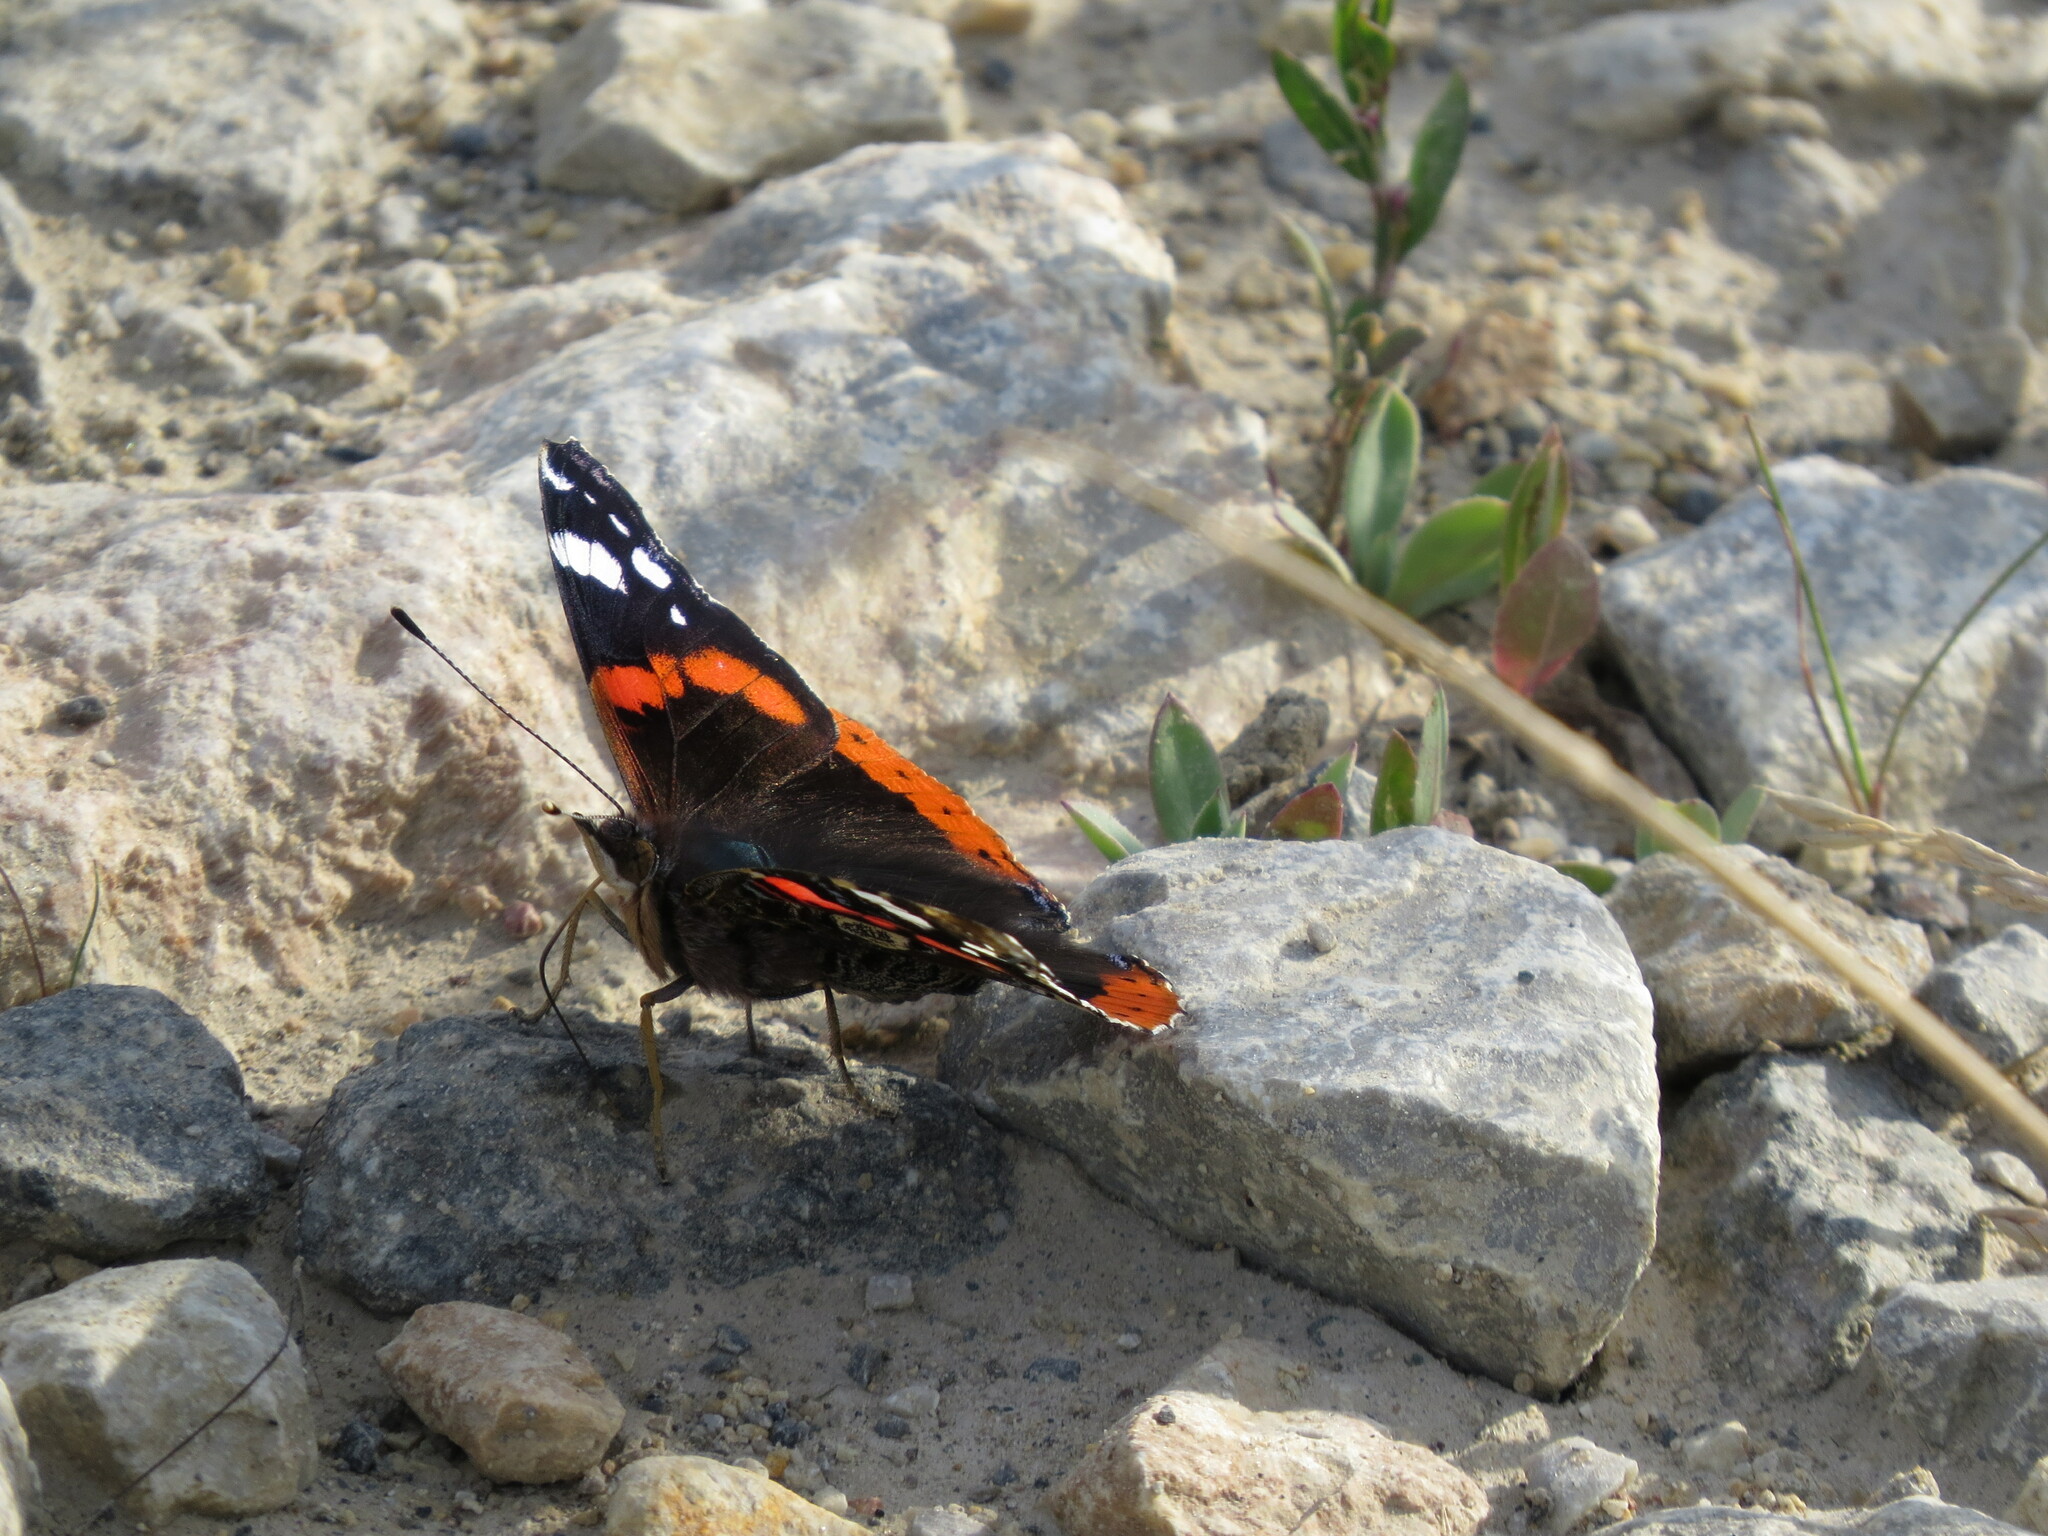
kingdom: Animalia
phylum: Arthropoda
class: Insecta
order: Lepidoptera
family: Nymphalidae
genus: Vanessa
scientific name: Vanessa atalanta
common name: Red admiral
